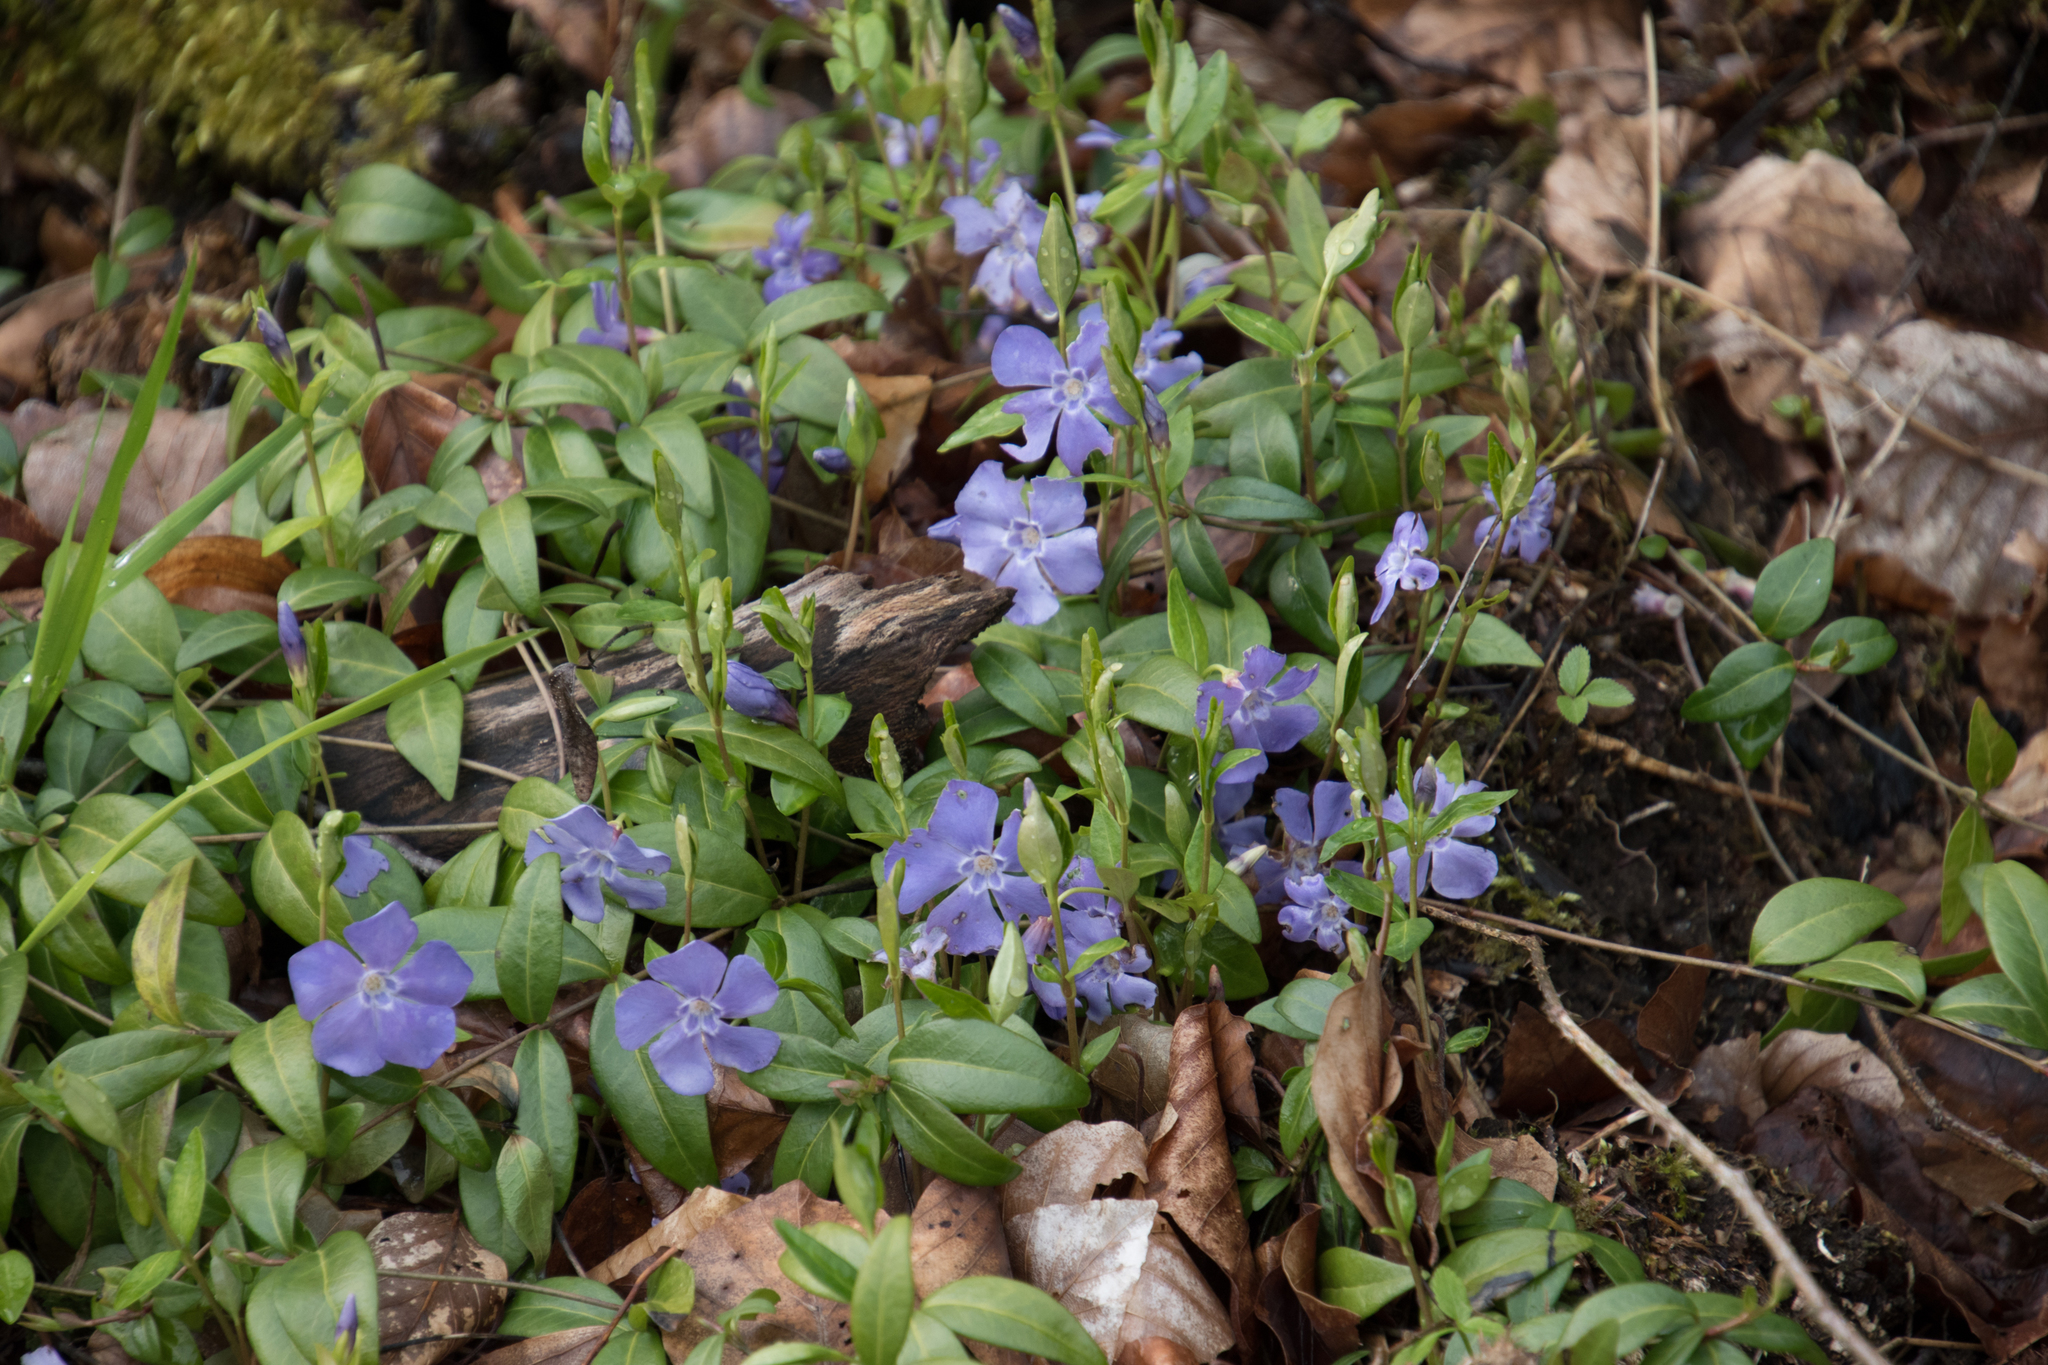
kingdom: Plantae
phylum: Tracheophyta
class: Magnoliopsida
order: Gentianales
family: Apocynaceae
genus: Vinca
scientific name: Vinca minor
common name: Lesser periwinkle
